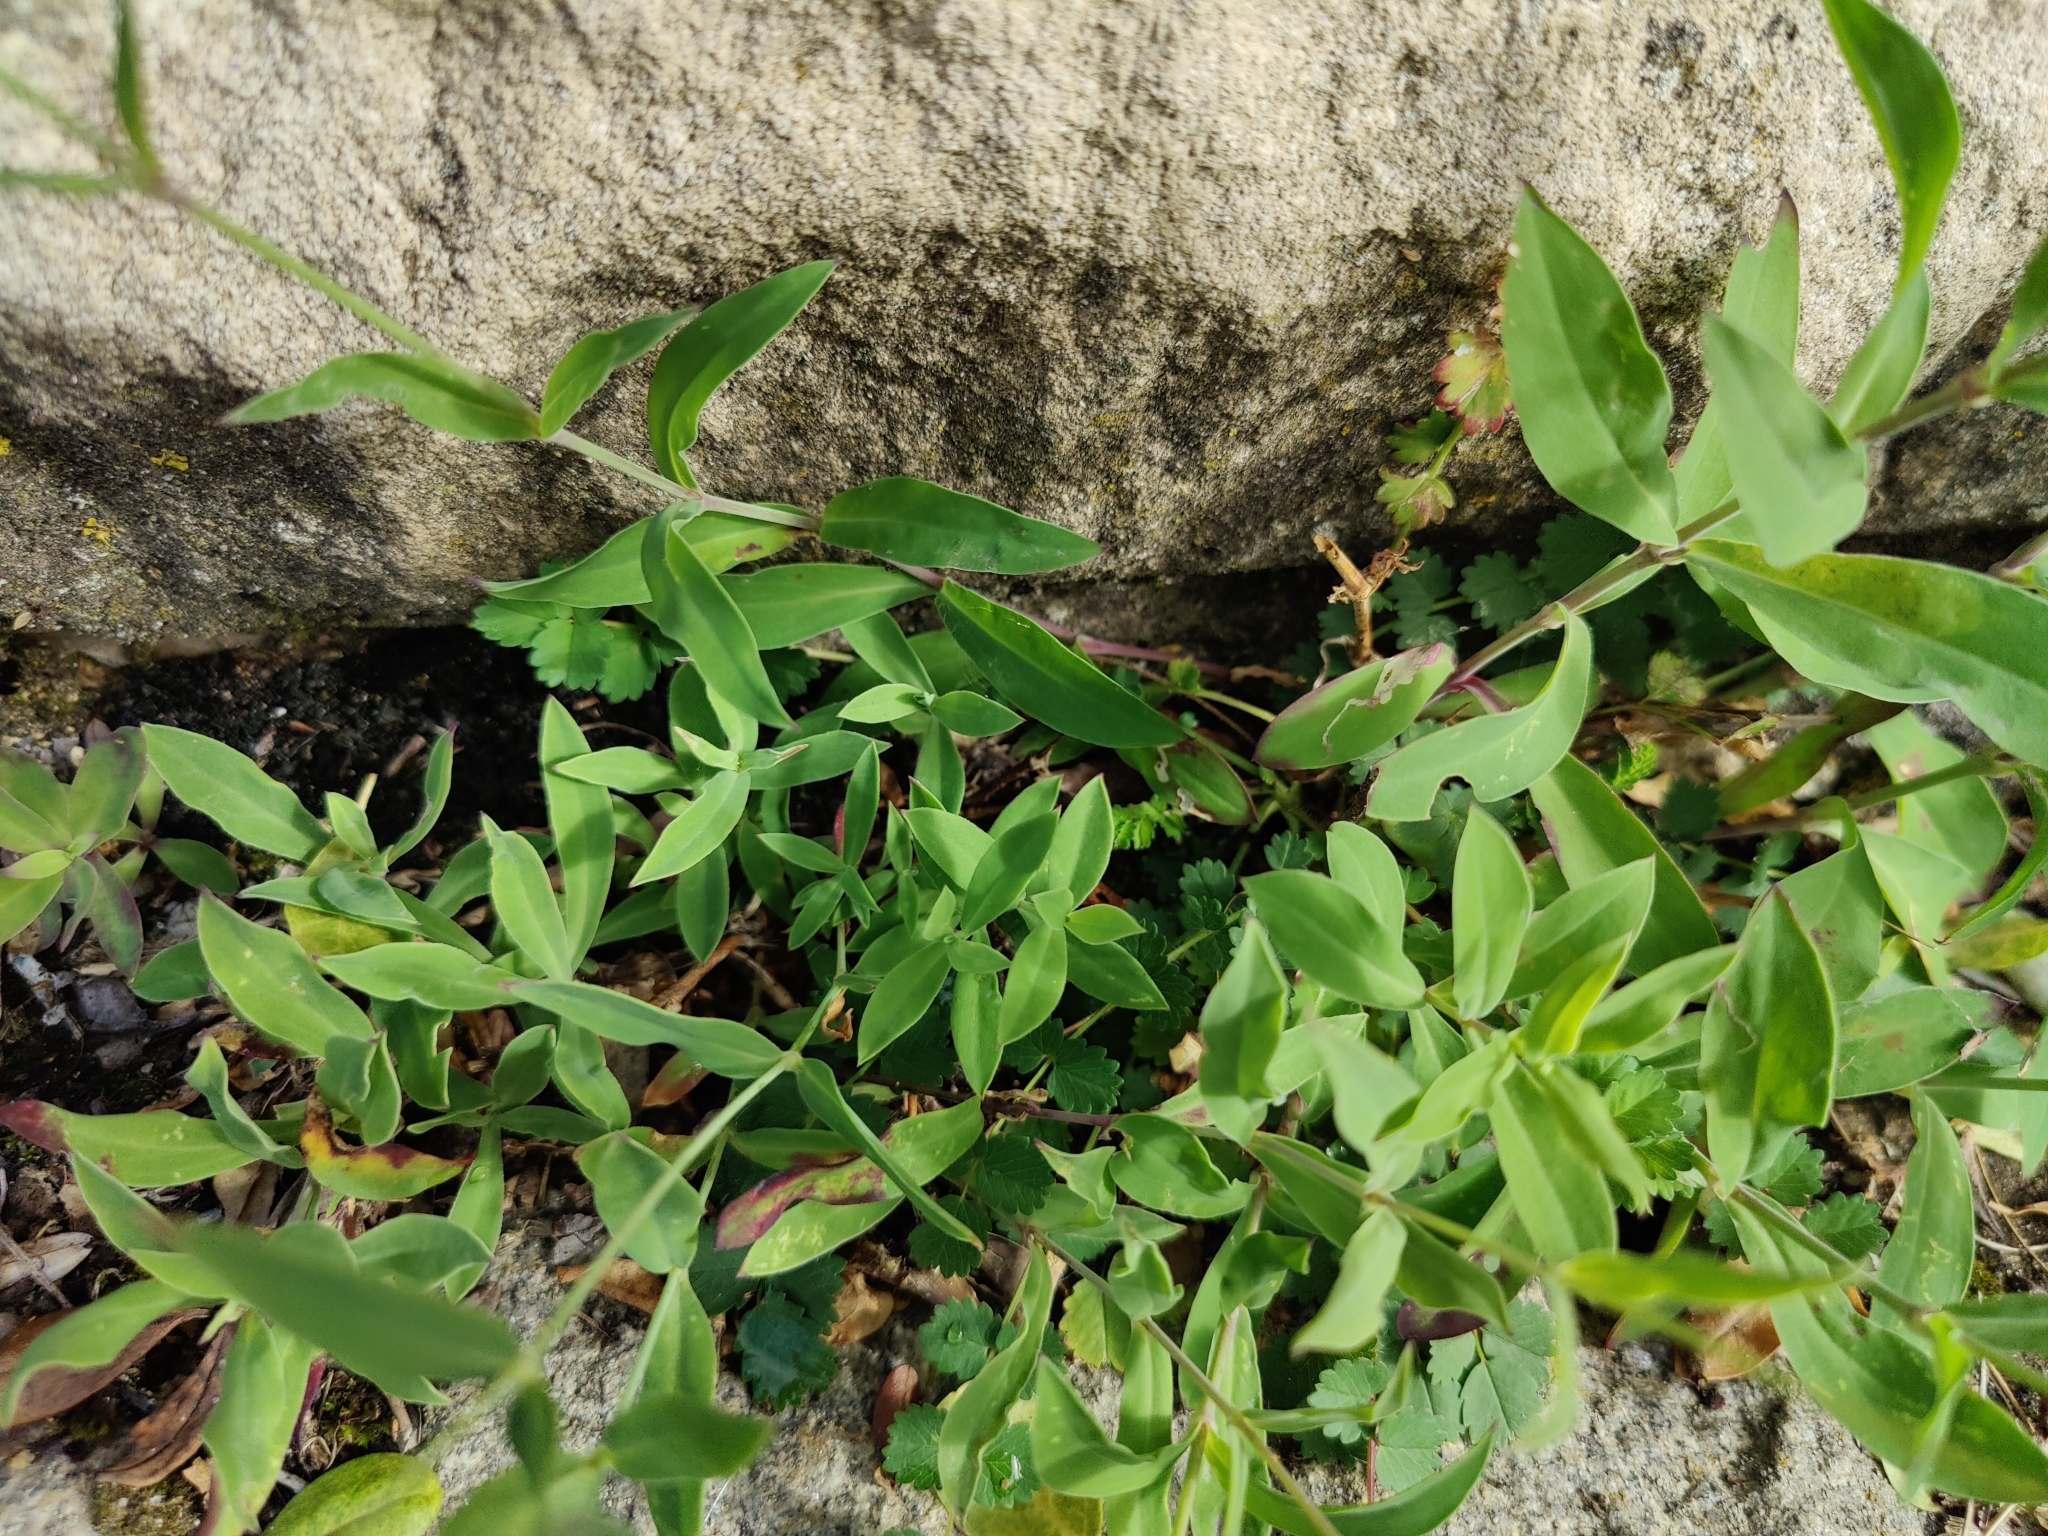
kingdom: Plantae
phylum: Tracheophyta
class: Magnoliopsida
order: Caryophyllales
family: Caryophyllaceae
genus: Silene
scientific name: Silene vulgaris
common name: Bladder campion
